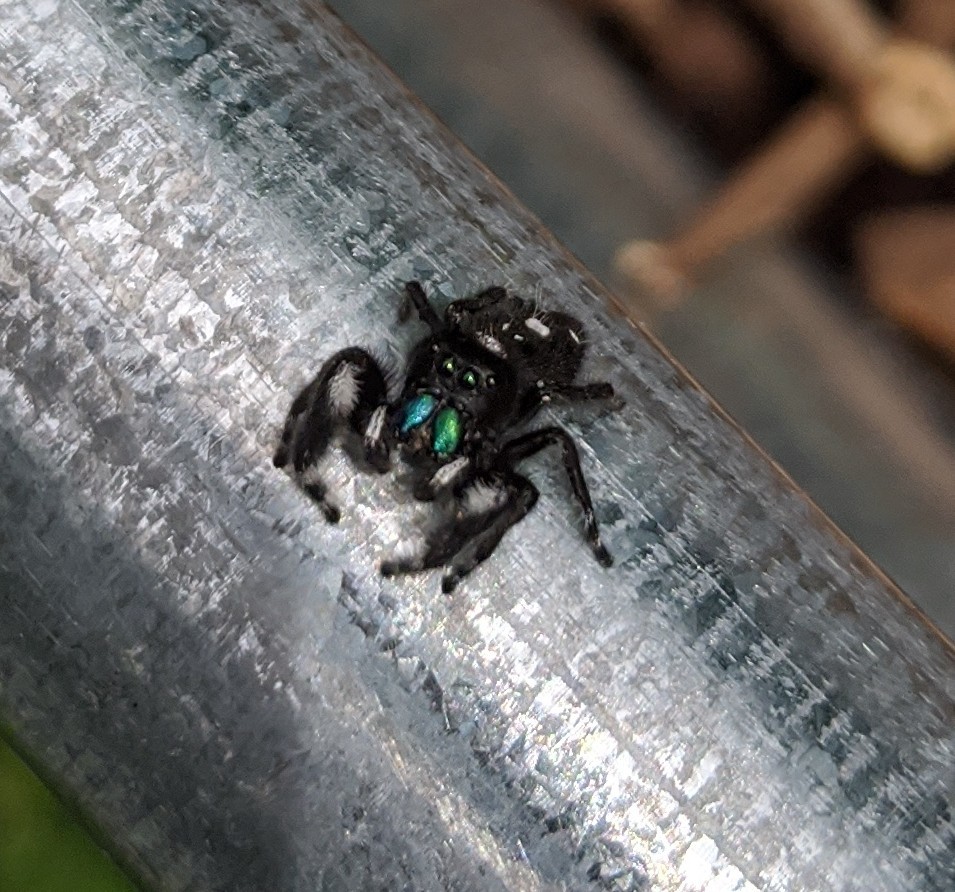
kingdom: Animalia
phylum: Arthropoda
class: Arachnida
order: Araneae
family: Salticidae
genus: Phidippus
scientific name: Phidippus audax
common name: Bold jumper
